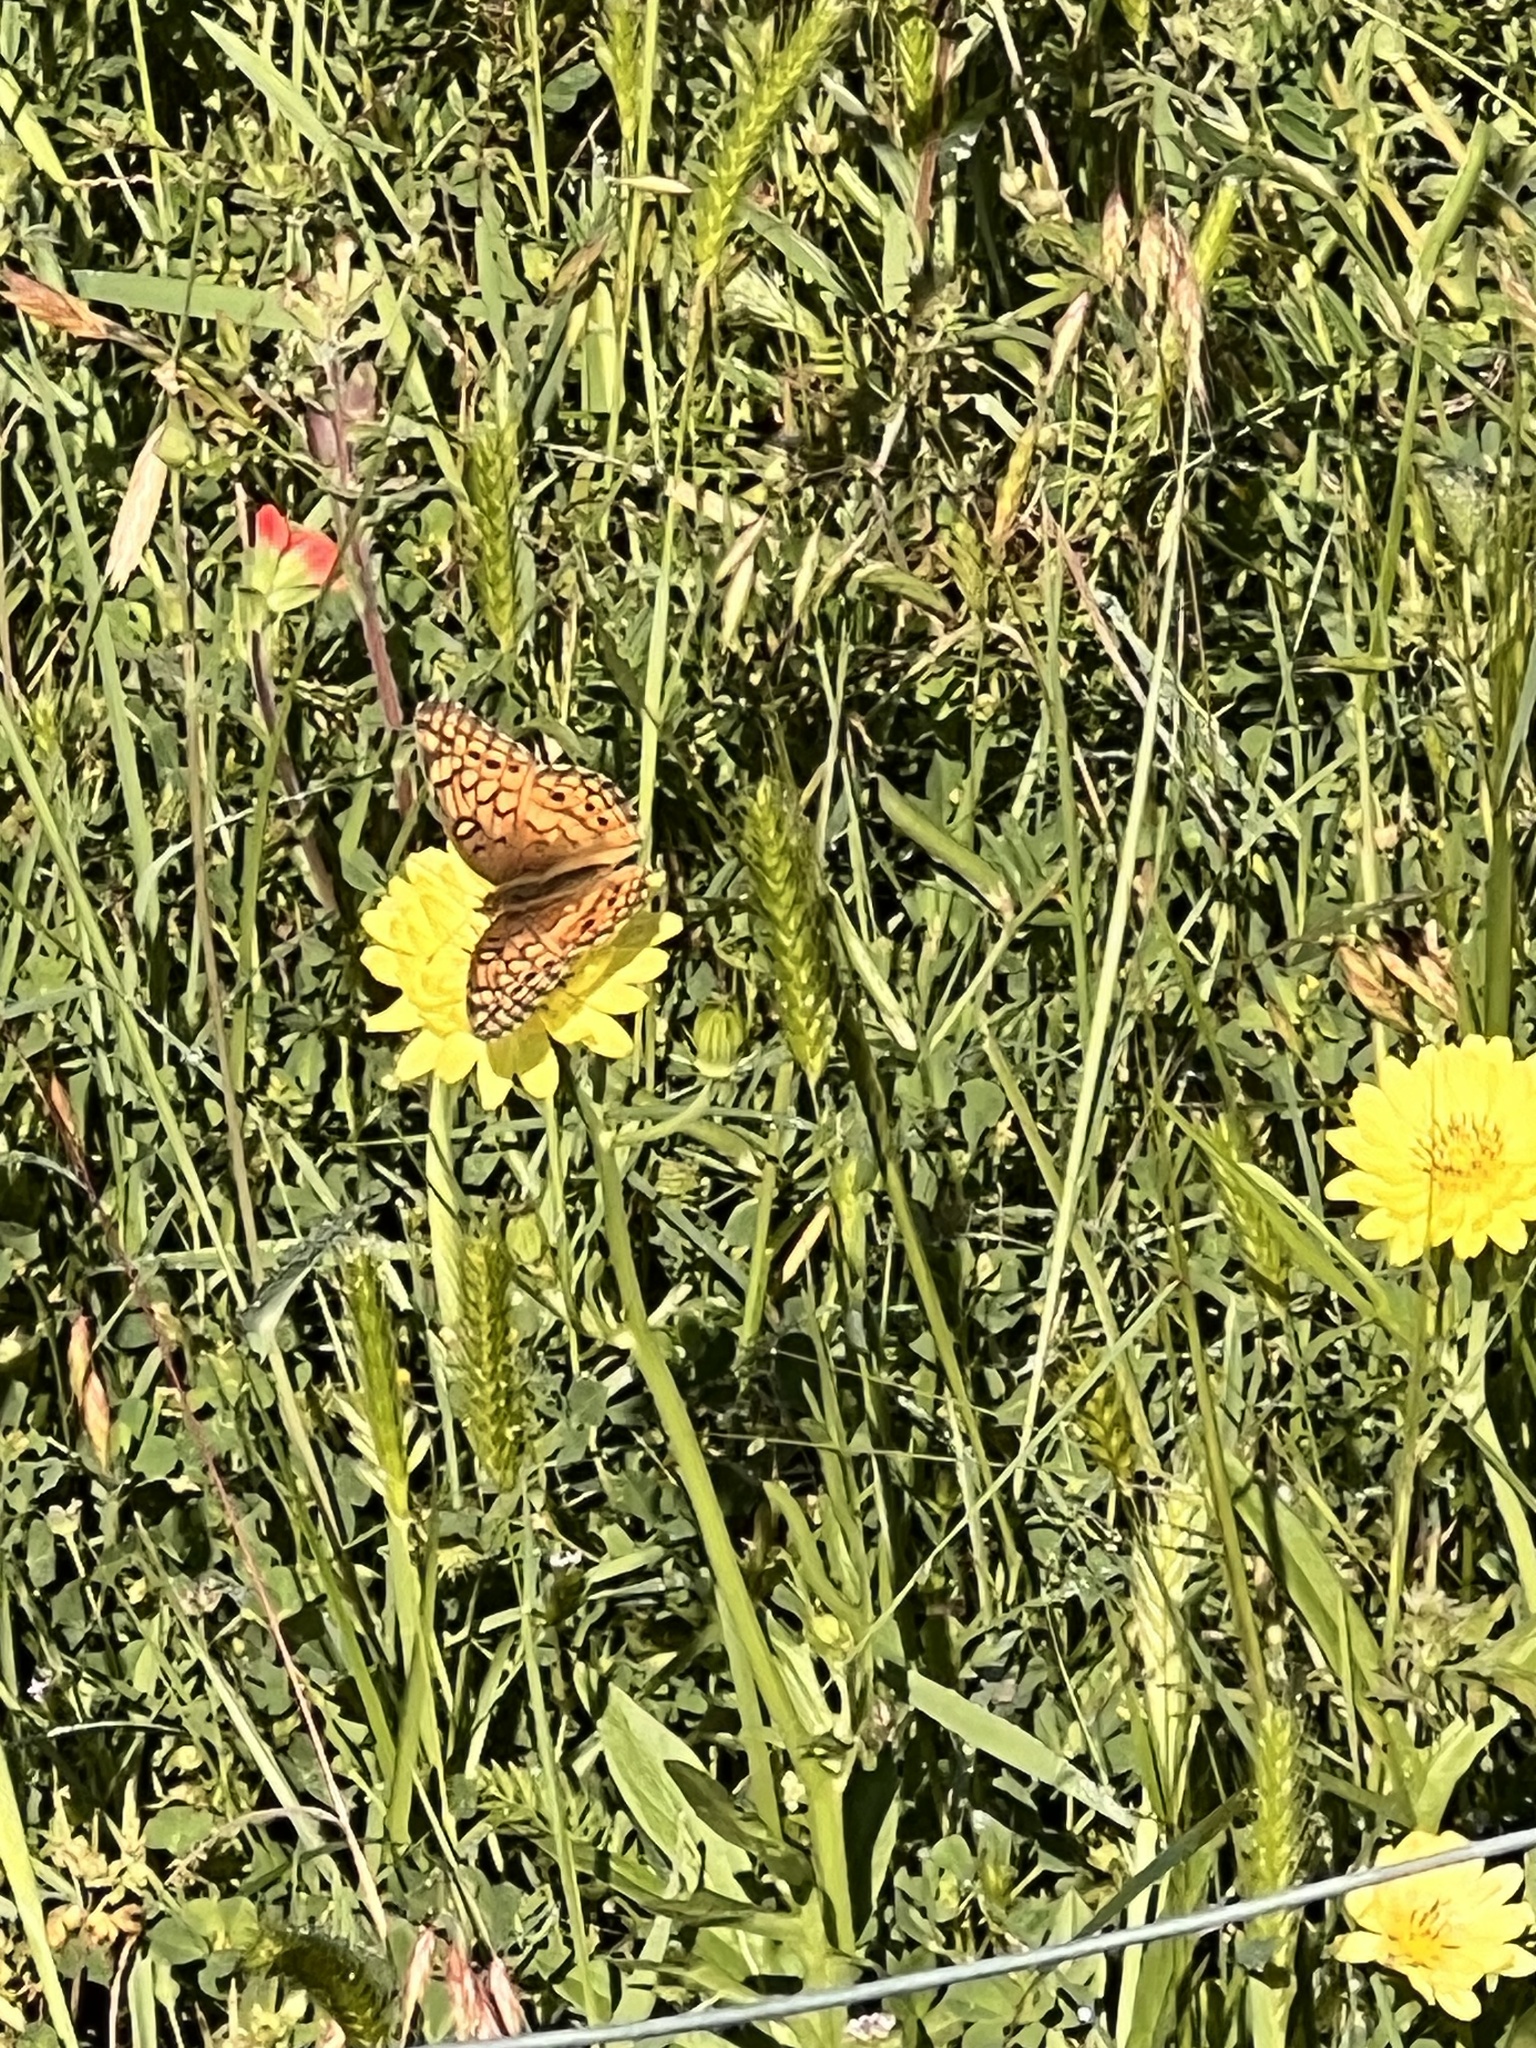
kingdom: Animalia
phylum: Arthropoda
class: Insecta
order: Lepidoptera
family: Nymphalidae
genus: Euptoieta
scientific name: Euptoieta claudia
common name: Variegated fritillary
